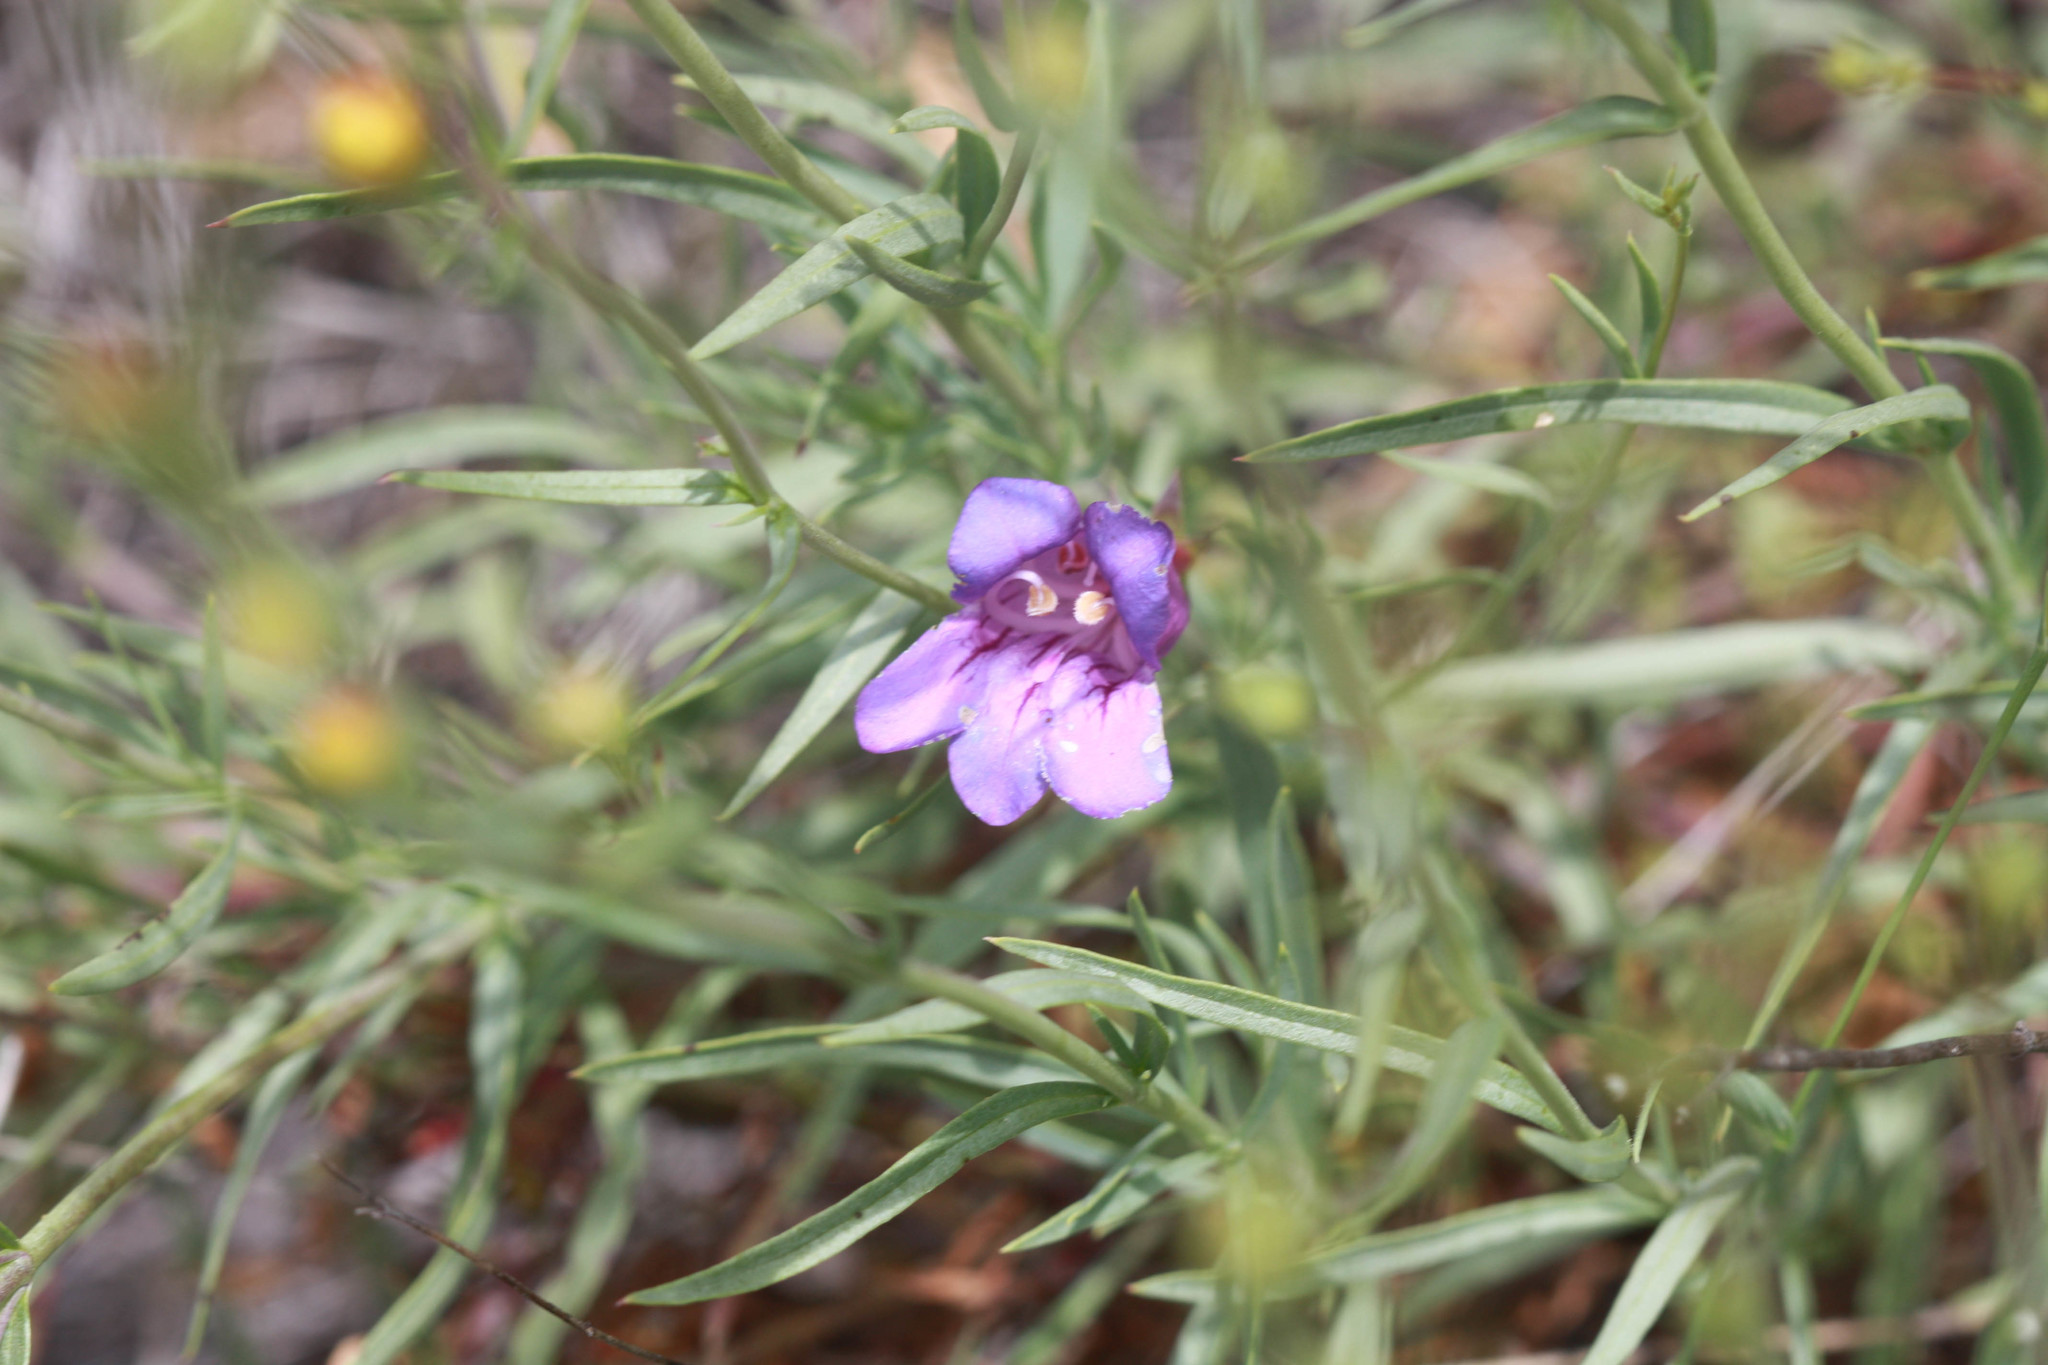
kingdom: Plantae
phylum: Tracheophyta
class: Magnoliopsida
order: Lamiales
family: Plantaginaceae
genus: Penstemon
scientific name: Penstemon heterophyllus
